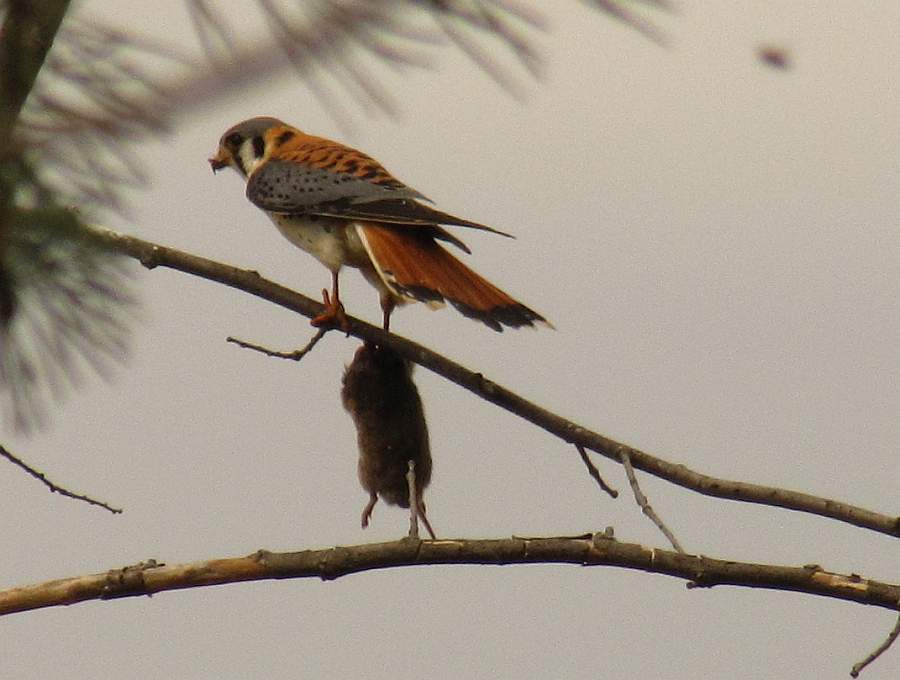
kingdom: Animalia
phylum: Chordata
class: Aves
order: Falconiformes
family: Falconidae
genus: Falco
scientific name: Falco sparverius
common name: American kestrel
